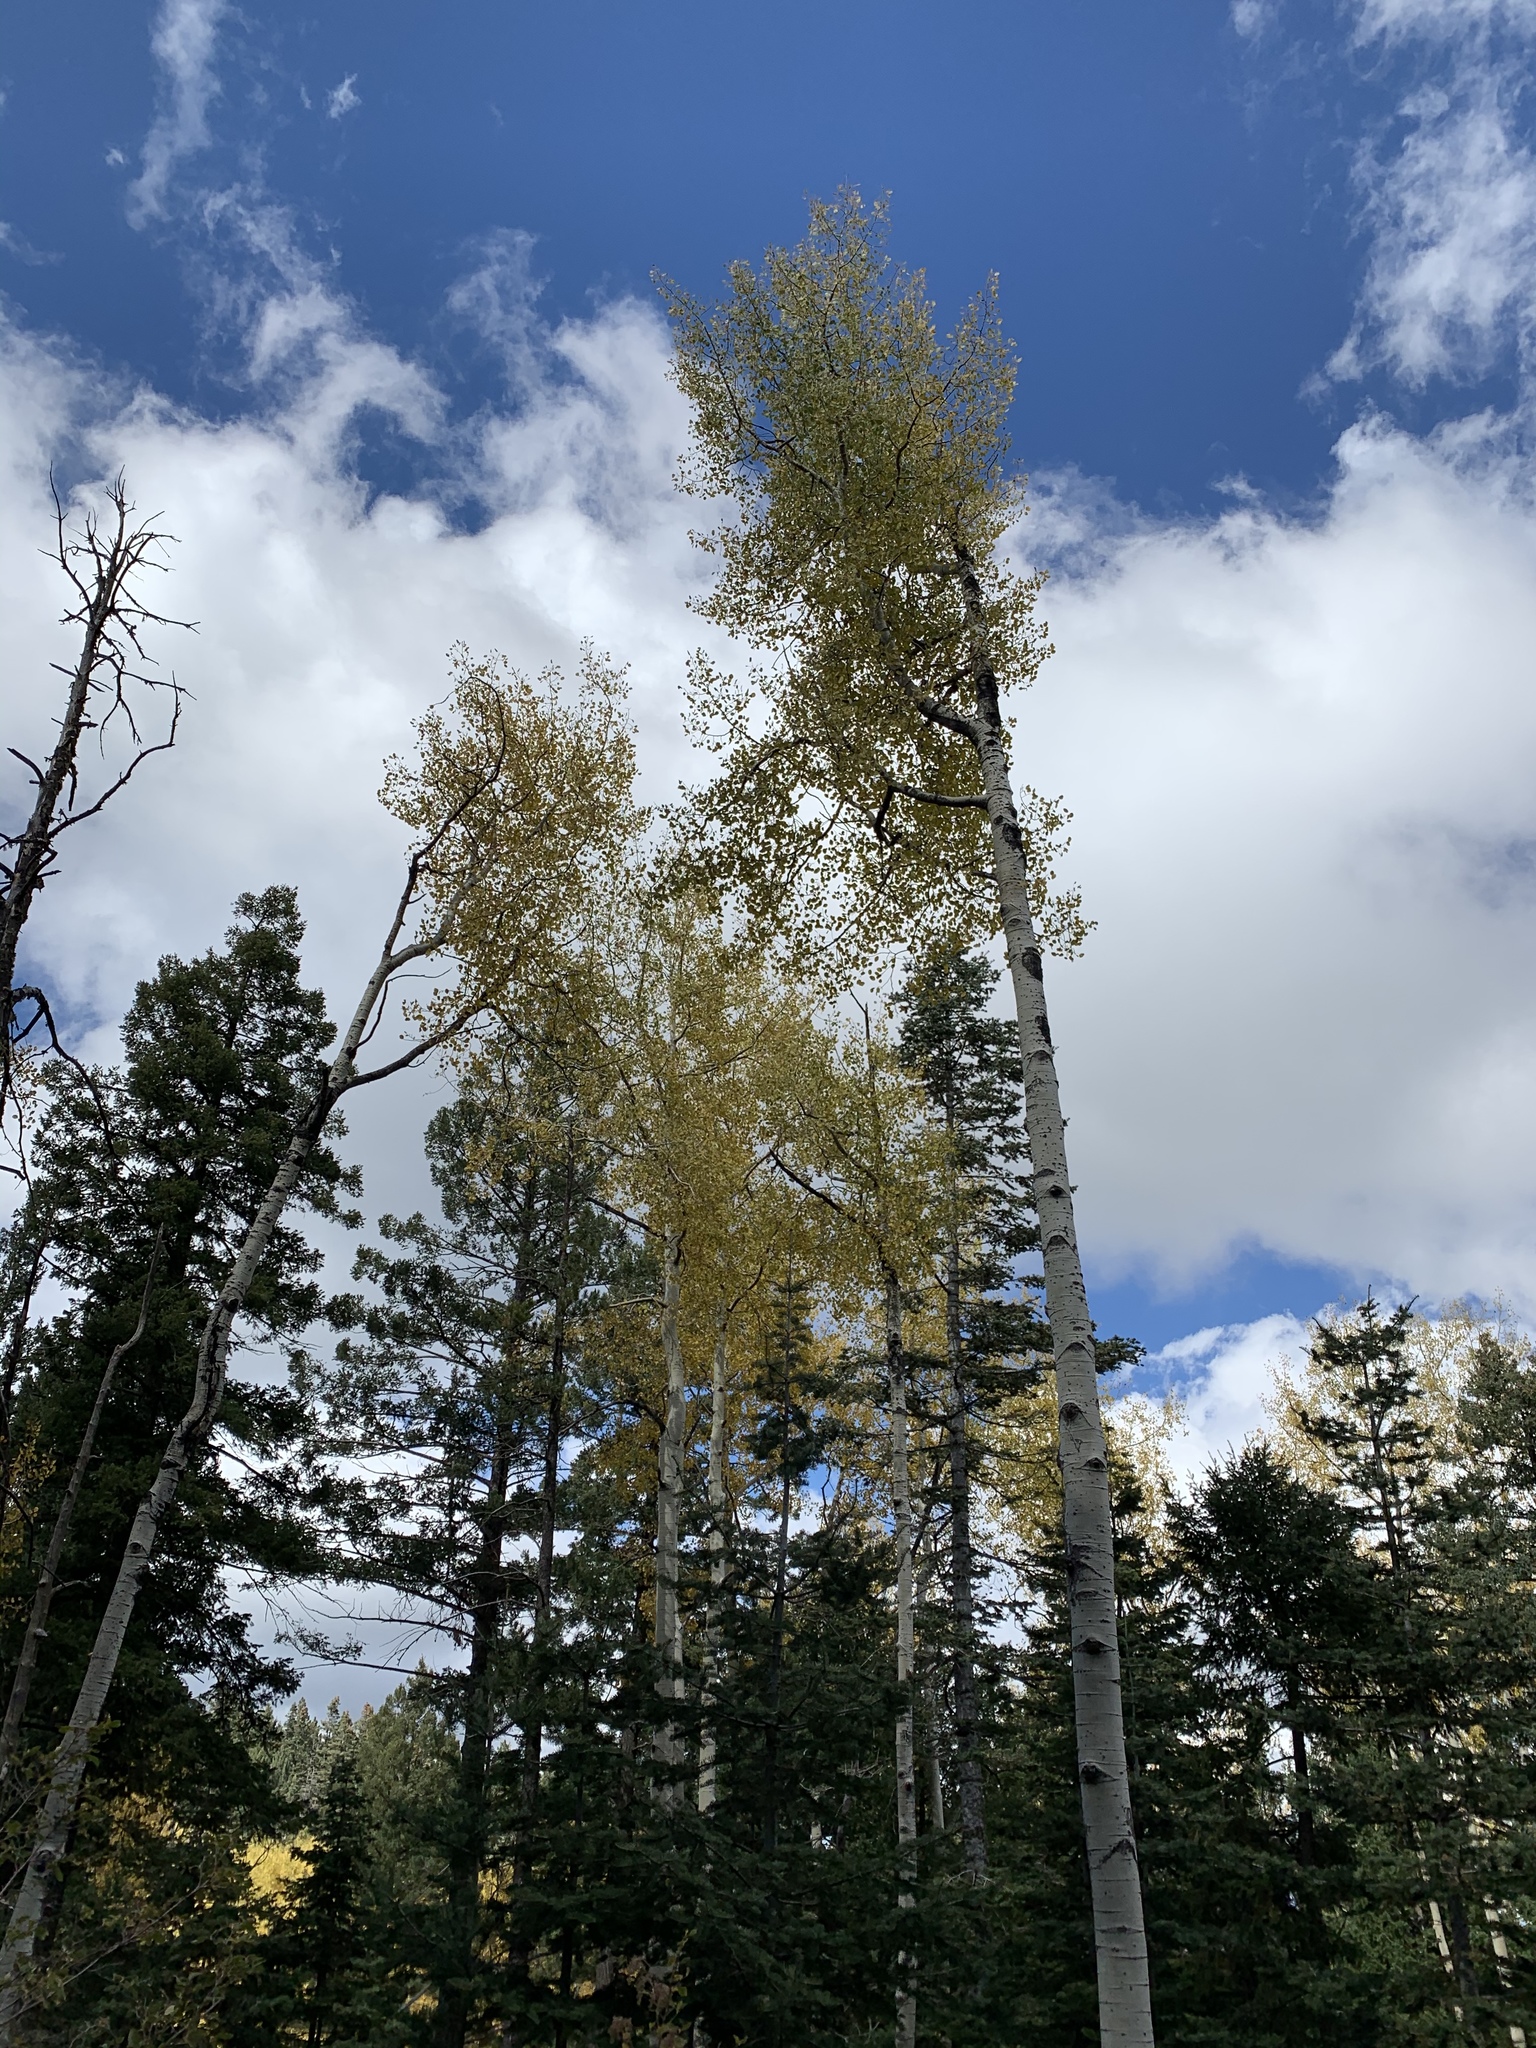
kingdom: Plantae
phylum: Tracheophyta
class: Magnoliopsida
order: Malpighiales
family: Salicaceae
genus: Populus
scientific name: Populus tremuloides
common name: Quaking aspen
